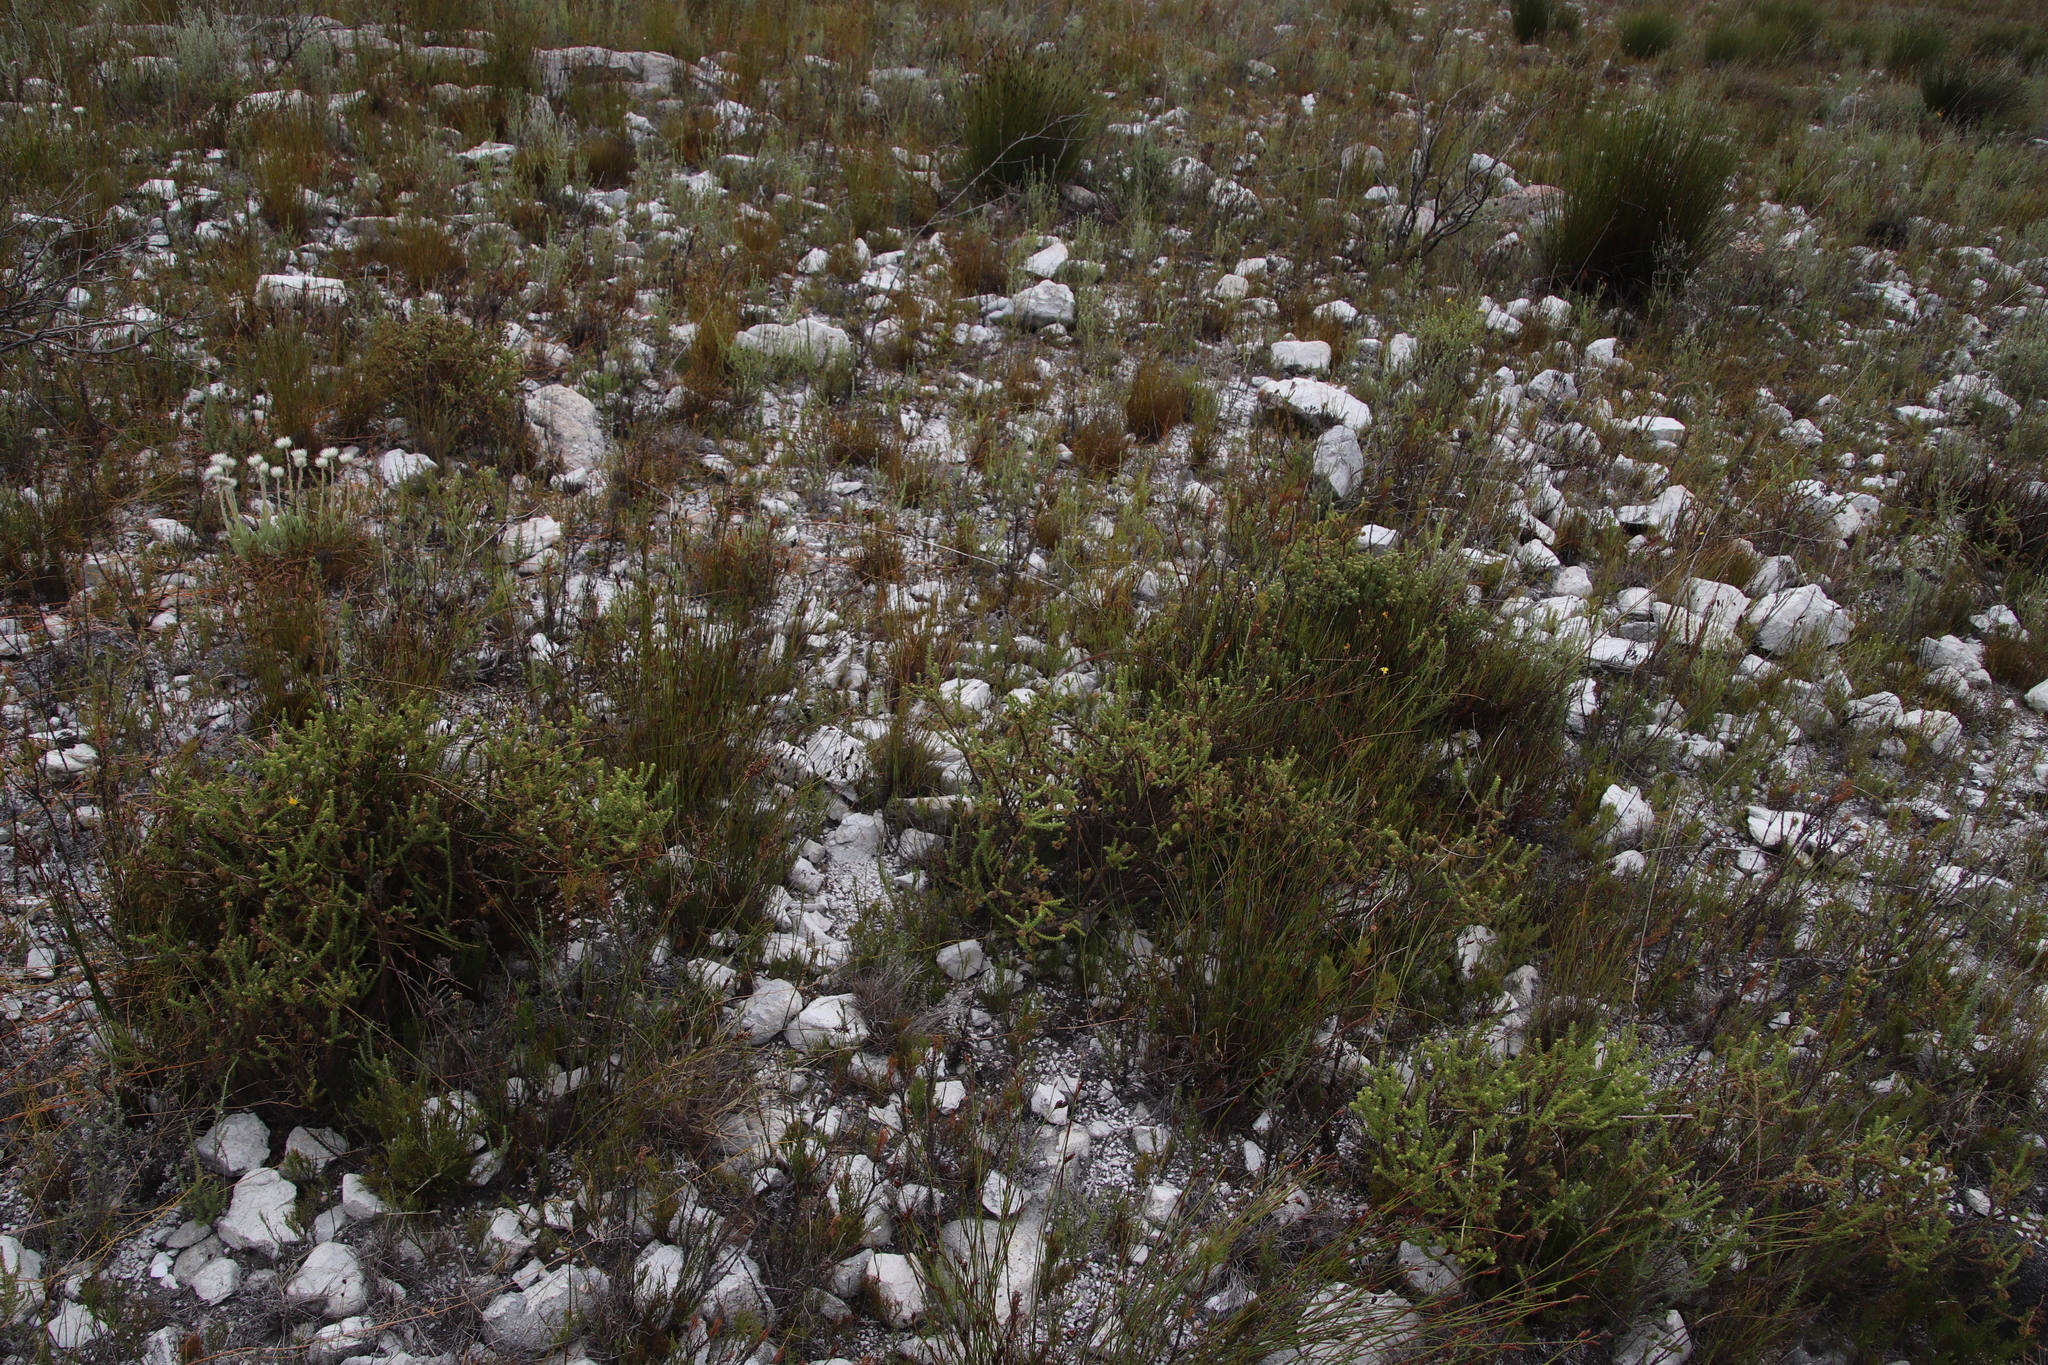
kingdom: Plantae
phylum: Tracheophyta
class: Magnoliopsida
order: Asterales
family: Asteraceae
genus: Cullumia
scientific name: Cullumia reticulata
